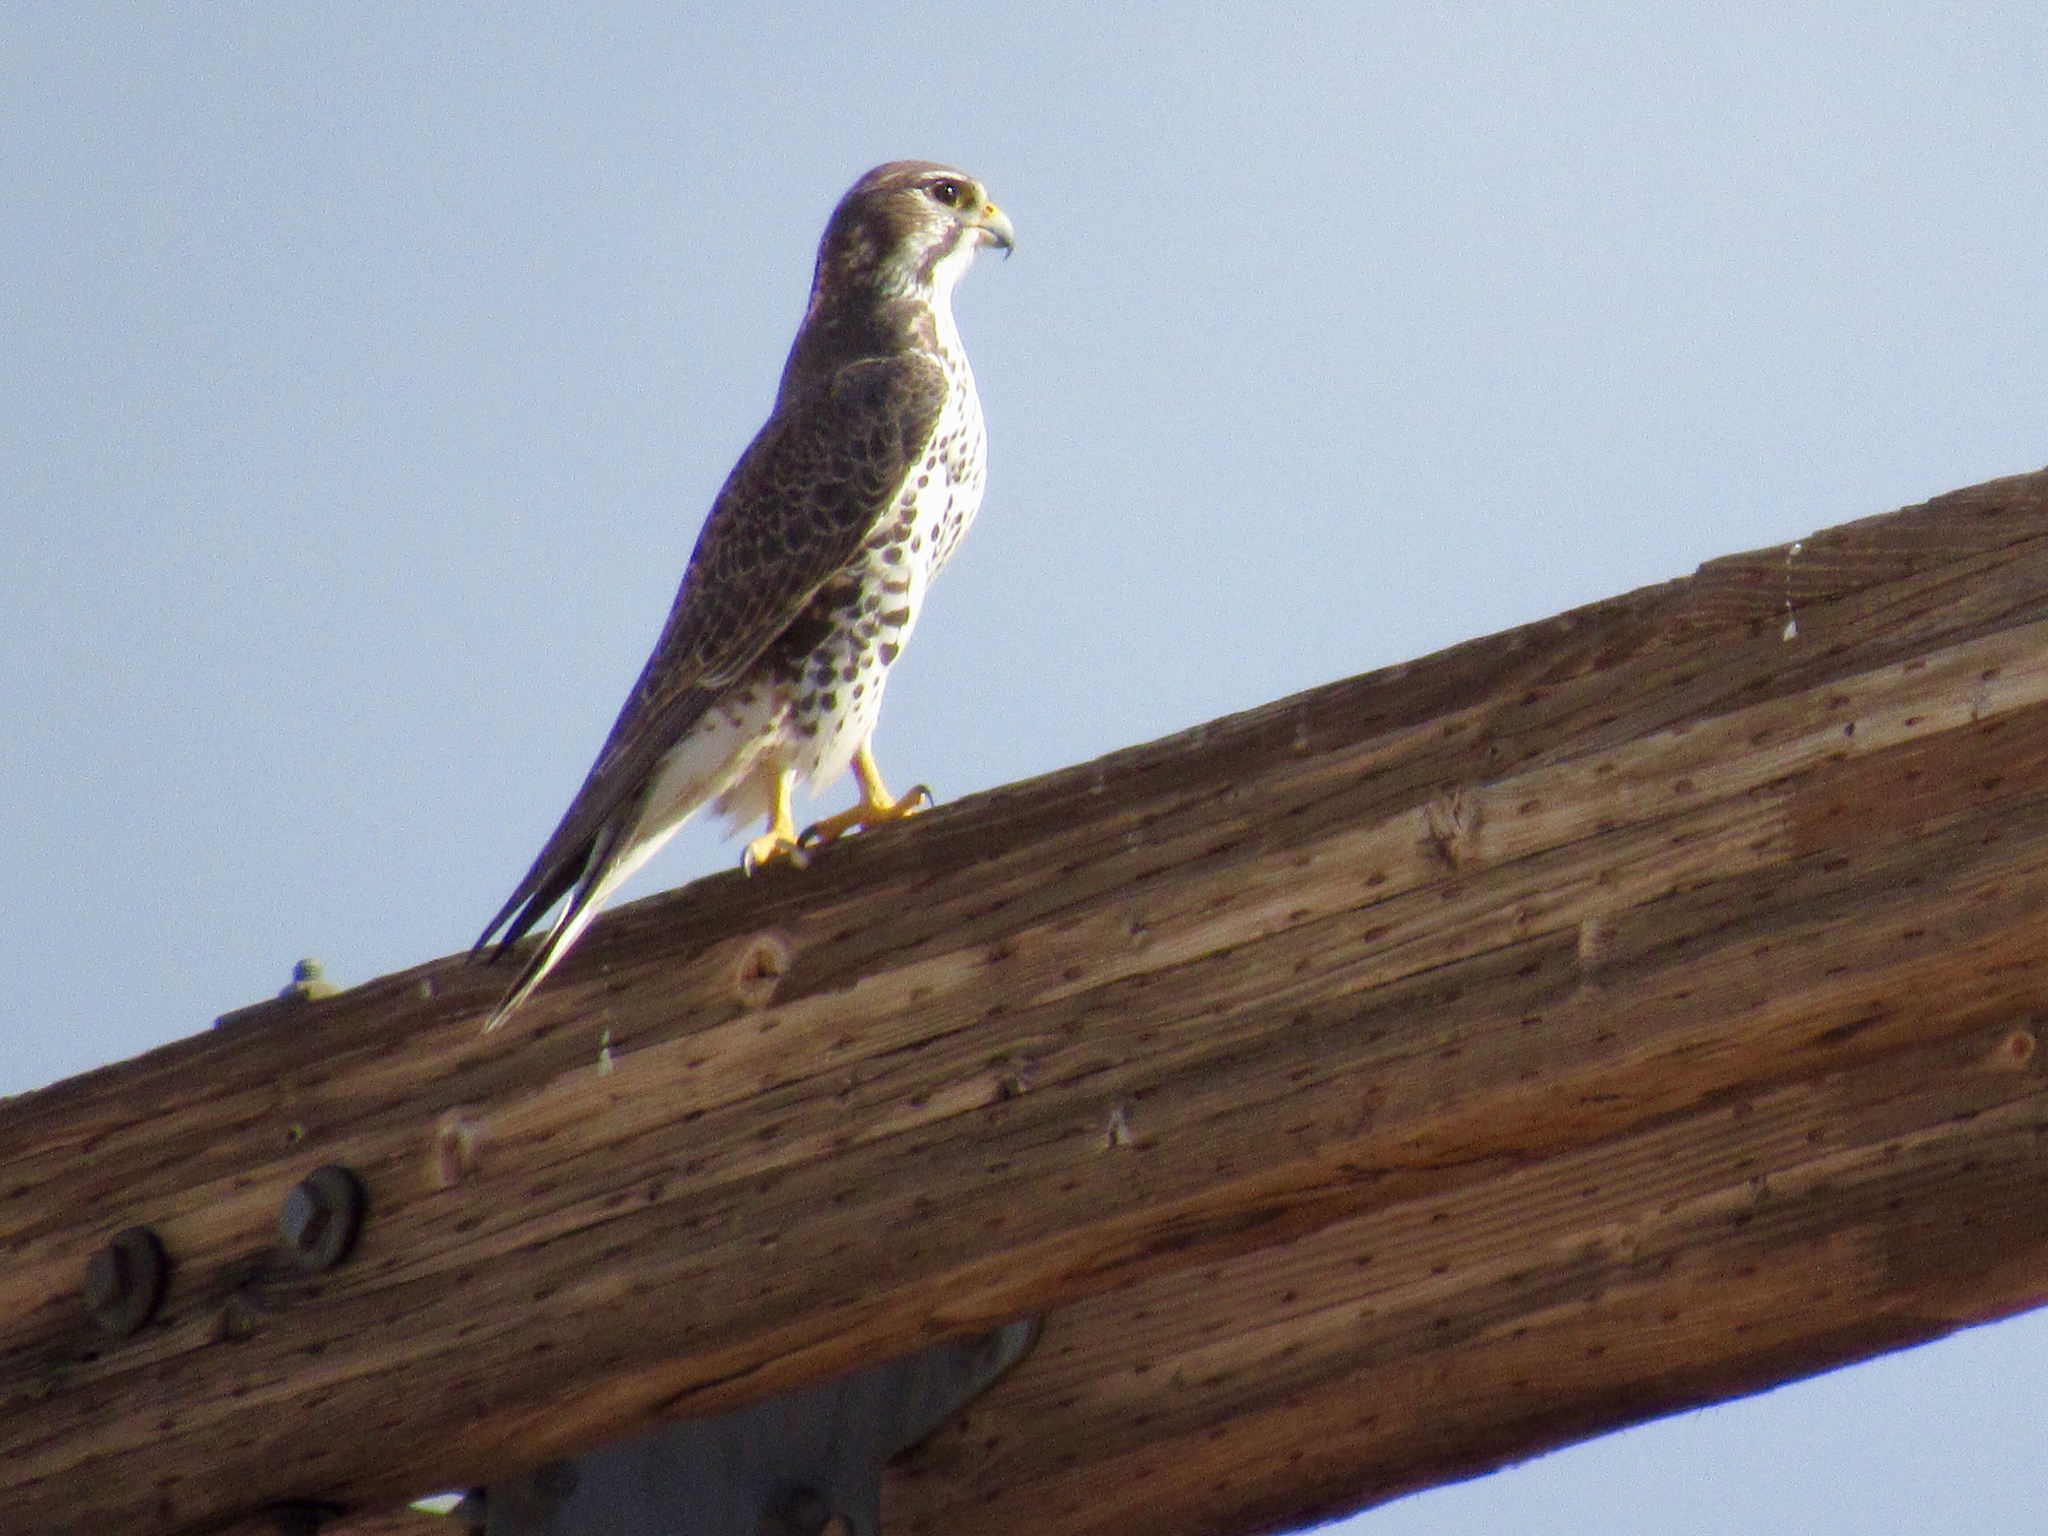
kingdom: Animalia
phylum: Chordata
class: Aves
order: Falconiformes
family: Falconidae
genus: Falco
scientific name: Falco mexicanus
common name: Prairie falcon
